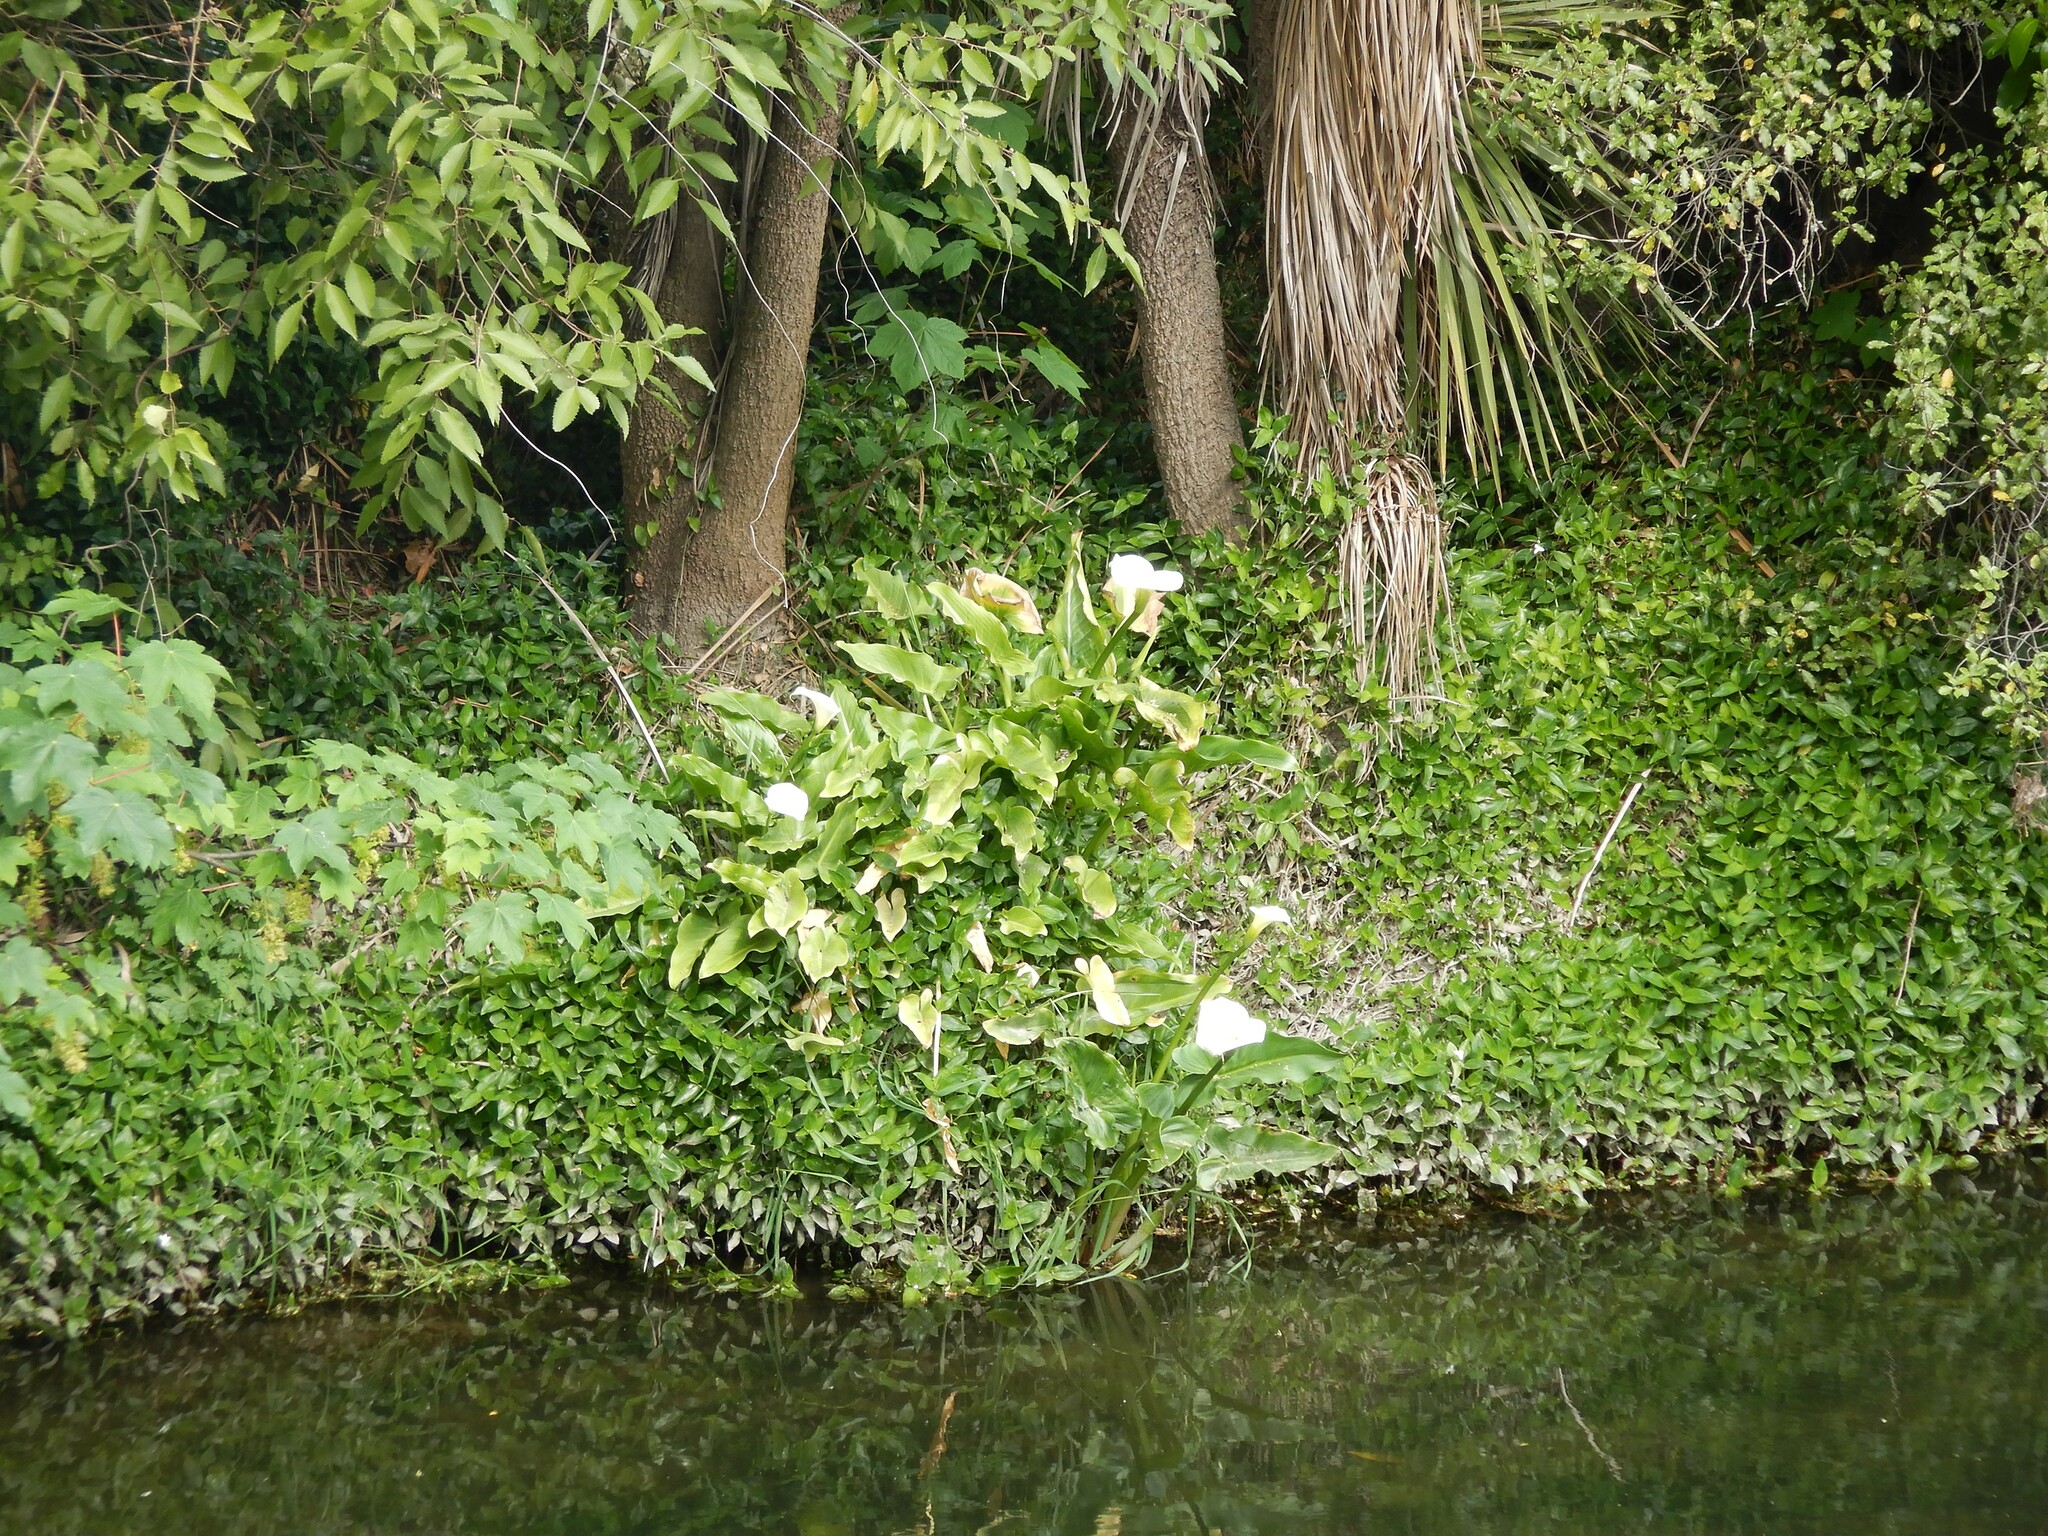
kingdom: Plantae
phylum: Tracheophyta
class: Liliopsida
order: Alismatales
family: Araceae
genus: Zantedeschia
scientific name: Zantedeschia aethiopica
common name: Altar-lily
